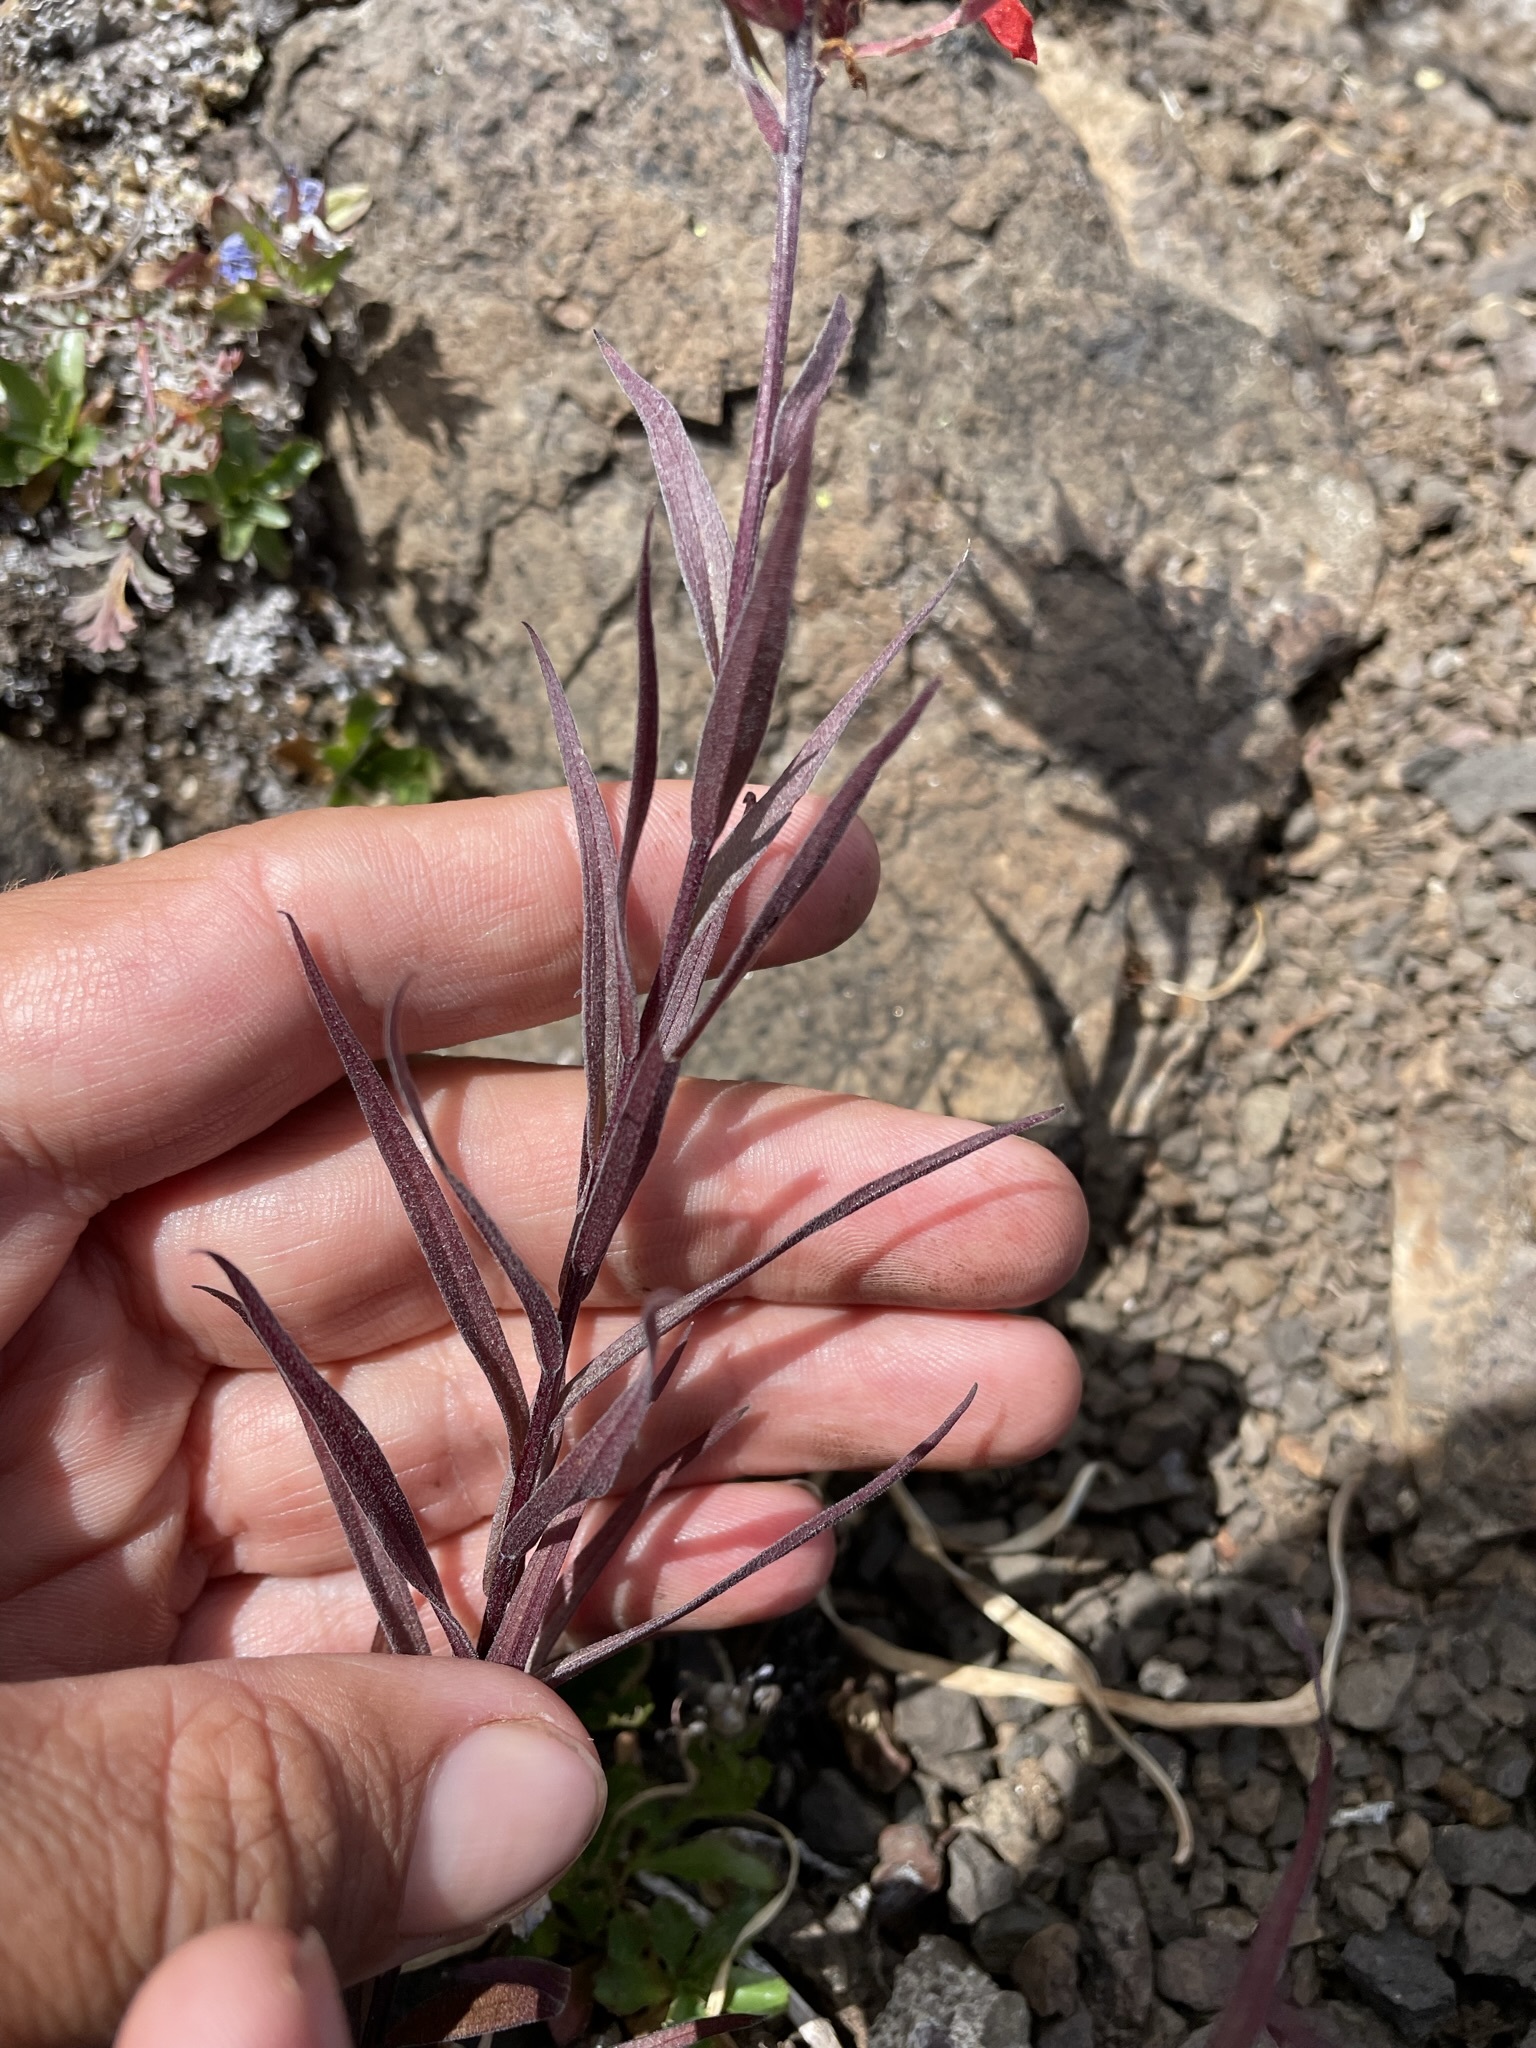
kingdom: Plantae
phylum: Tracheophyta
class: Magnoliopsida
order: Lamiales
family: Orobanchaceae
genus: Castilleja
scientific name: Castilleja miniata
